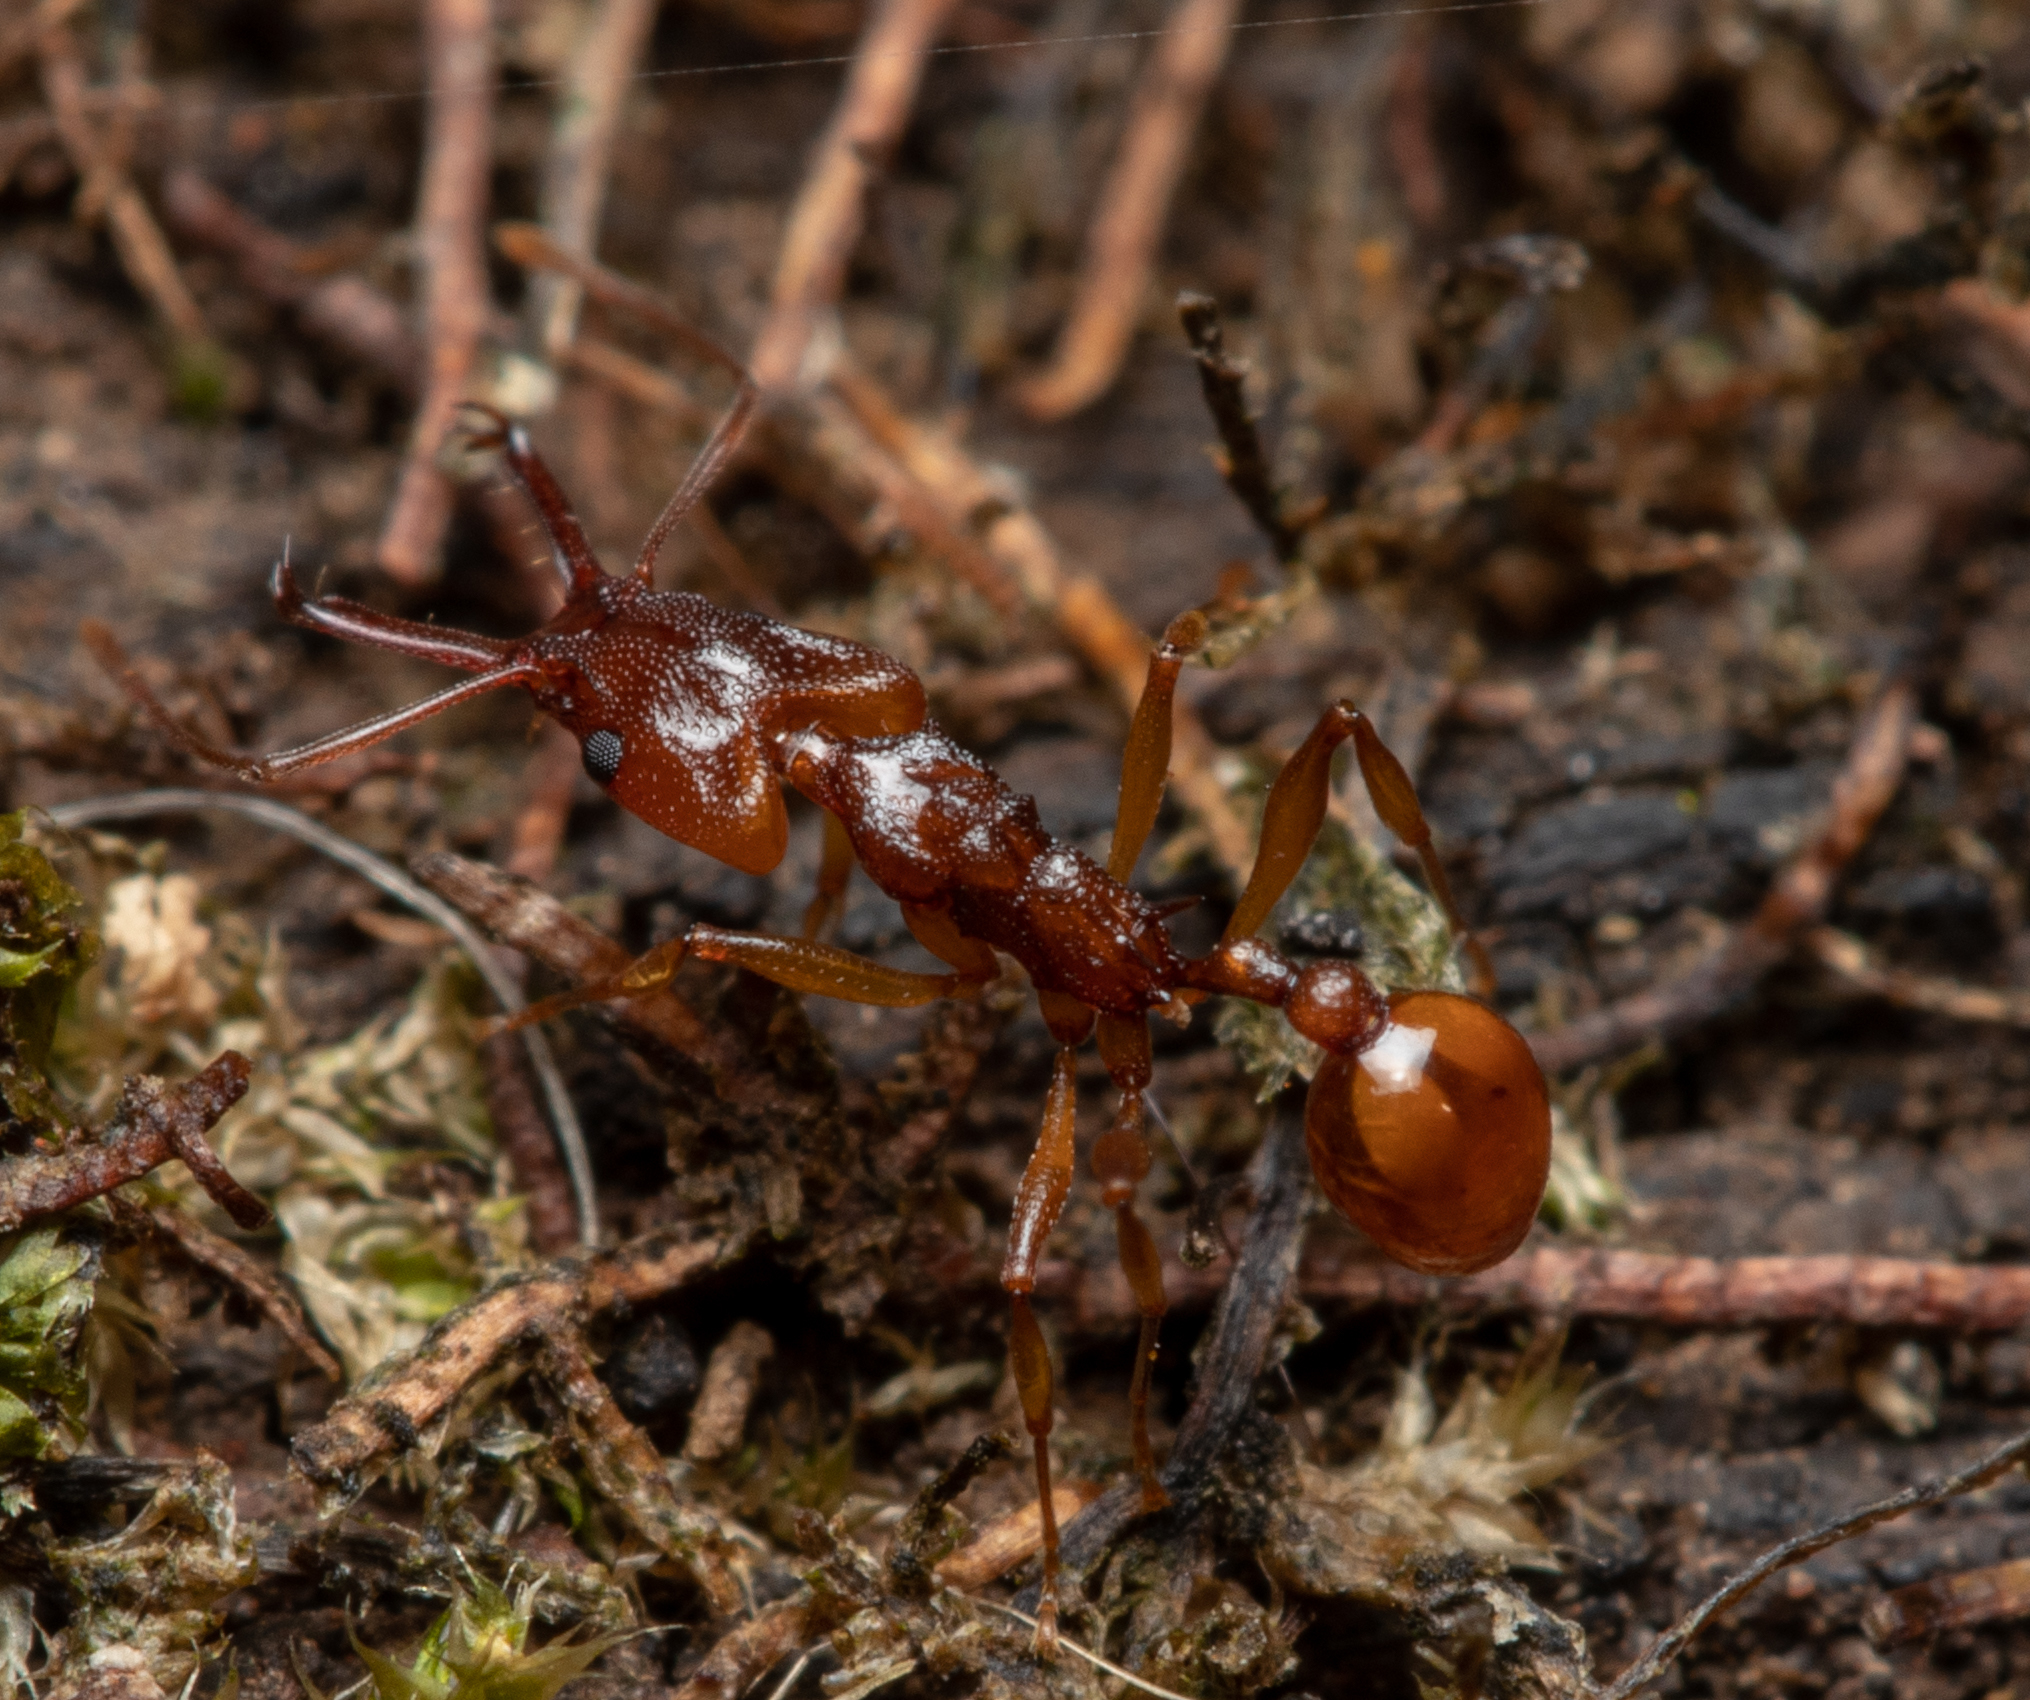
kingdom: Animalia
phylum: Arthropoda
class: Insecta
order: Hymenoptera
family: Formicidae
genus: Orectognathus
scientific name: Orectognathus antennatus
